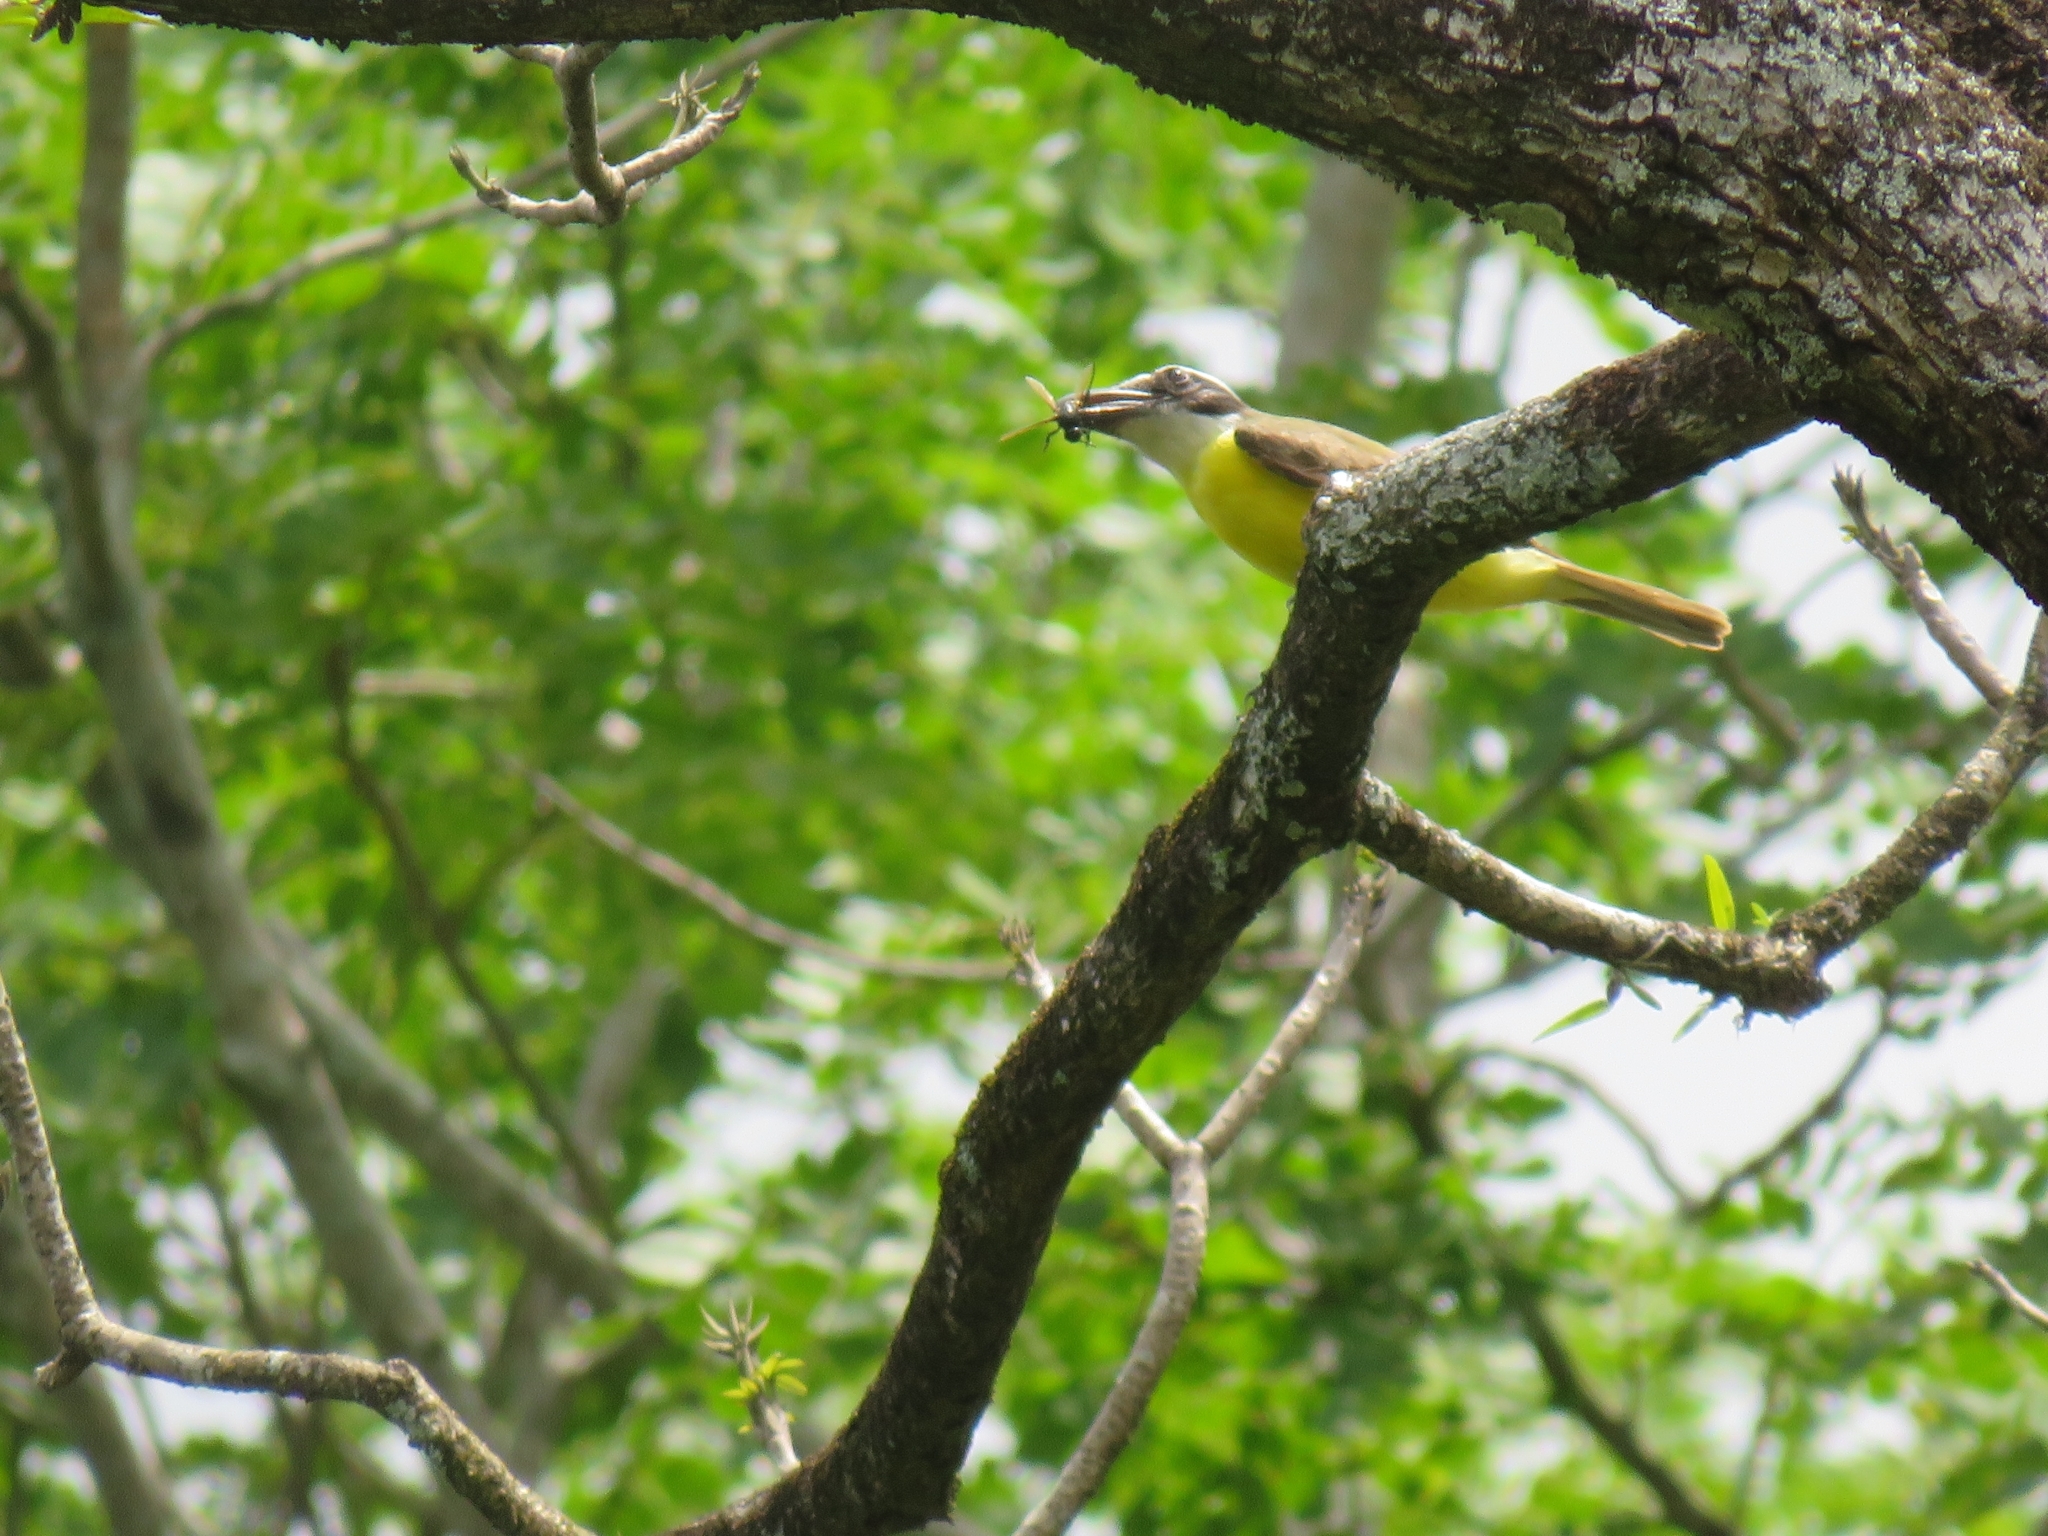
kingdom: Animalia
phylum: Chordata
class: Aves
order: Passeriformes
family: Tyrannidae
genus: Megarynchus
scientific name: Megarynchus pitangua
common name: Boat-billed flycatcher
